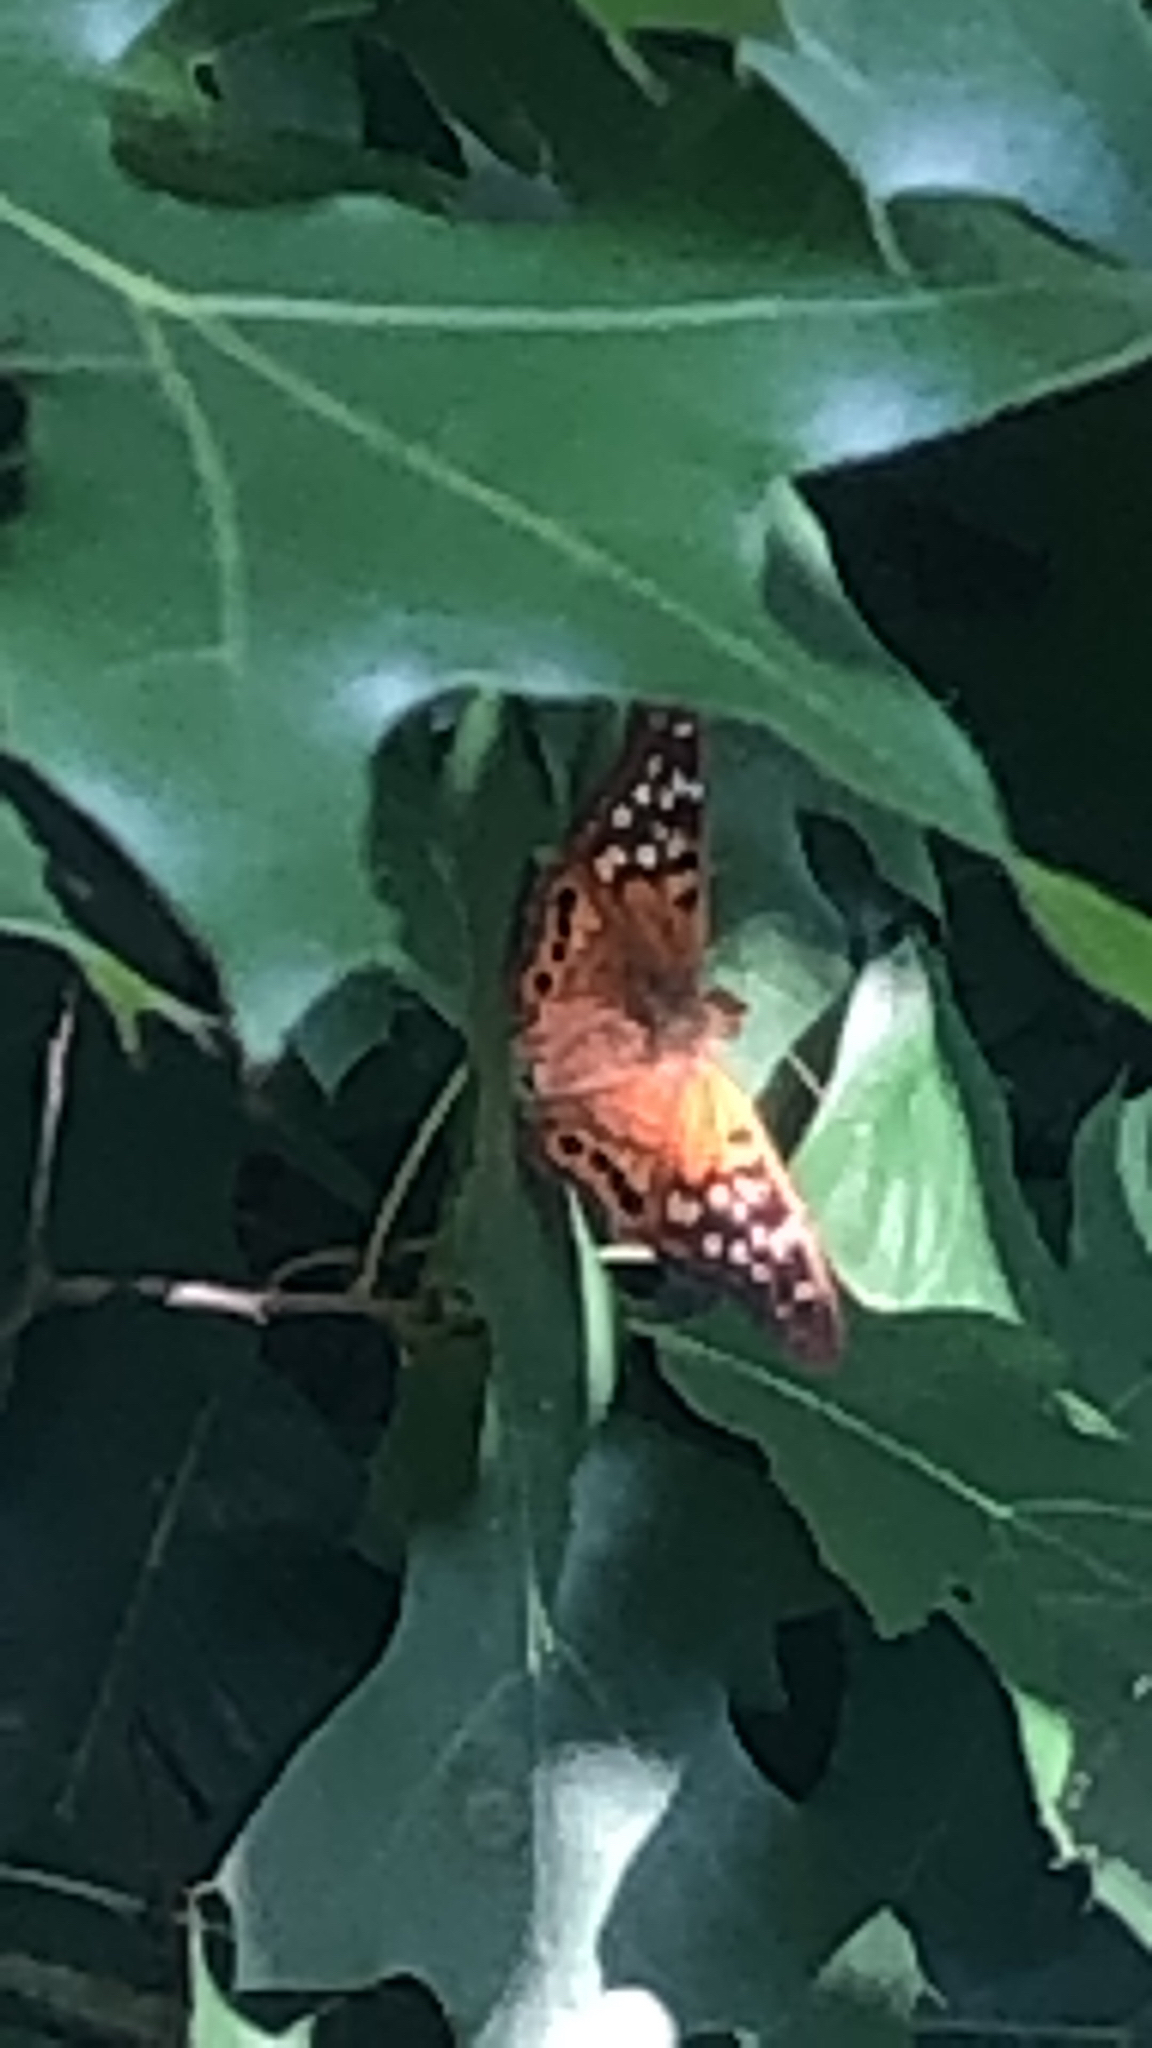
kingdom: Animalia
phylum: Arthropoda
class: Insecta
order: Lepidoptera
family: Nymphalidae
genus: Asterocampa
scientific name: Asterocampa clyton
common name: Tawny emperor
